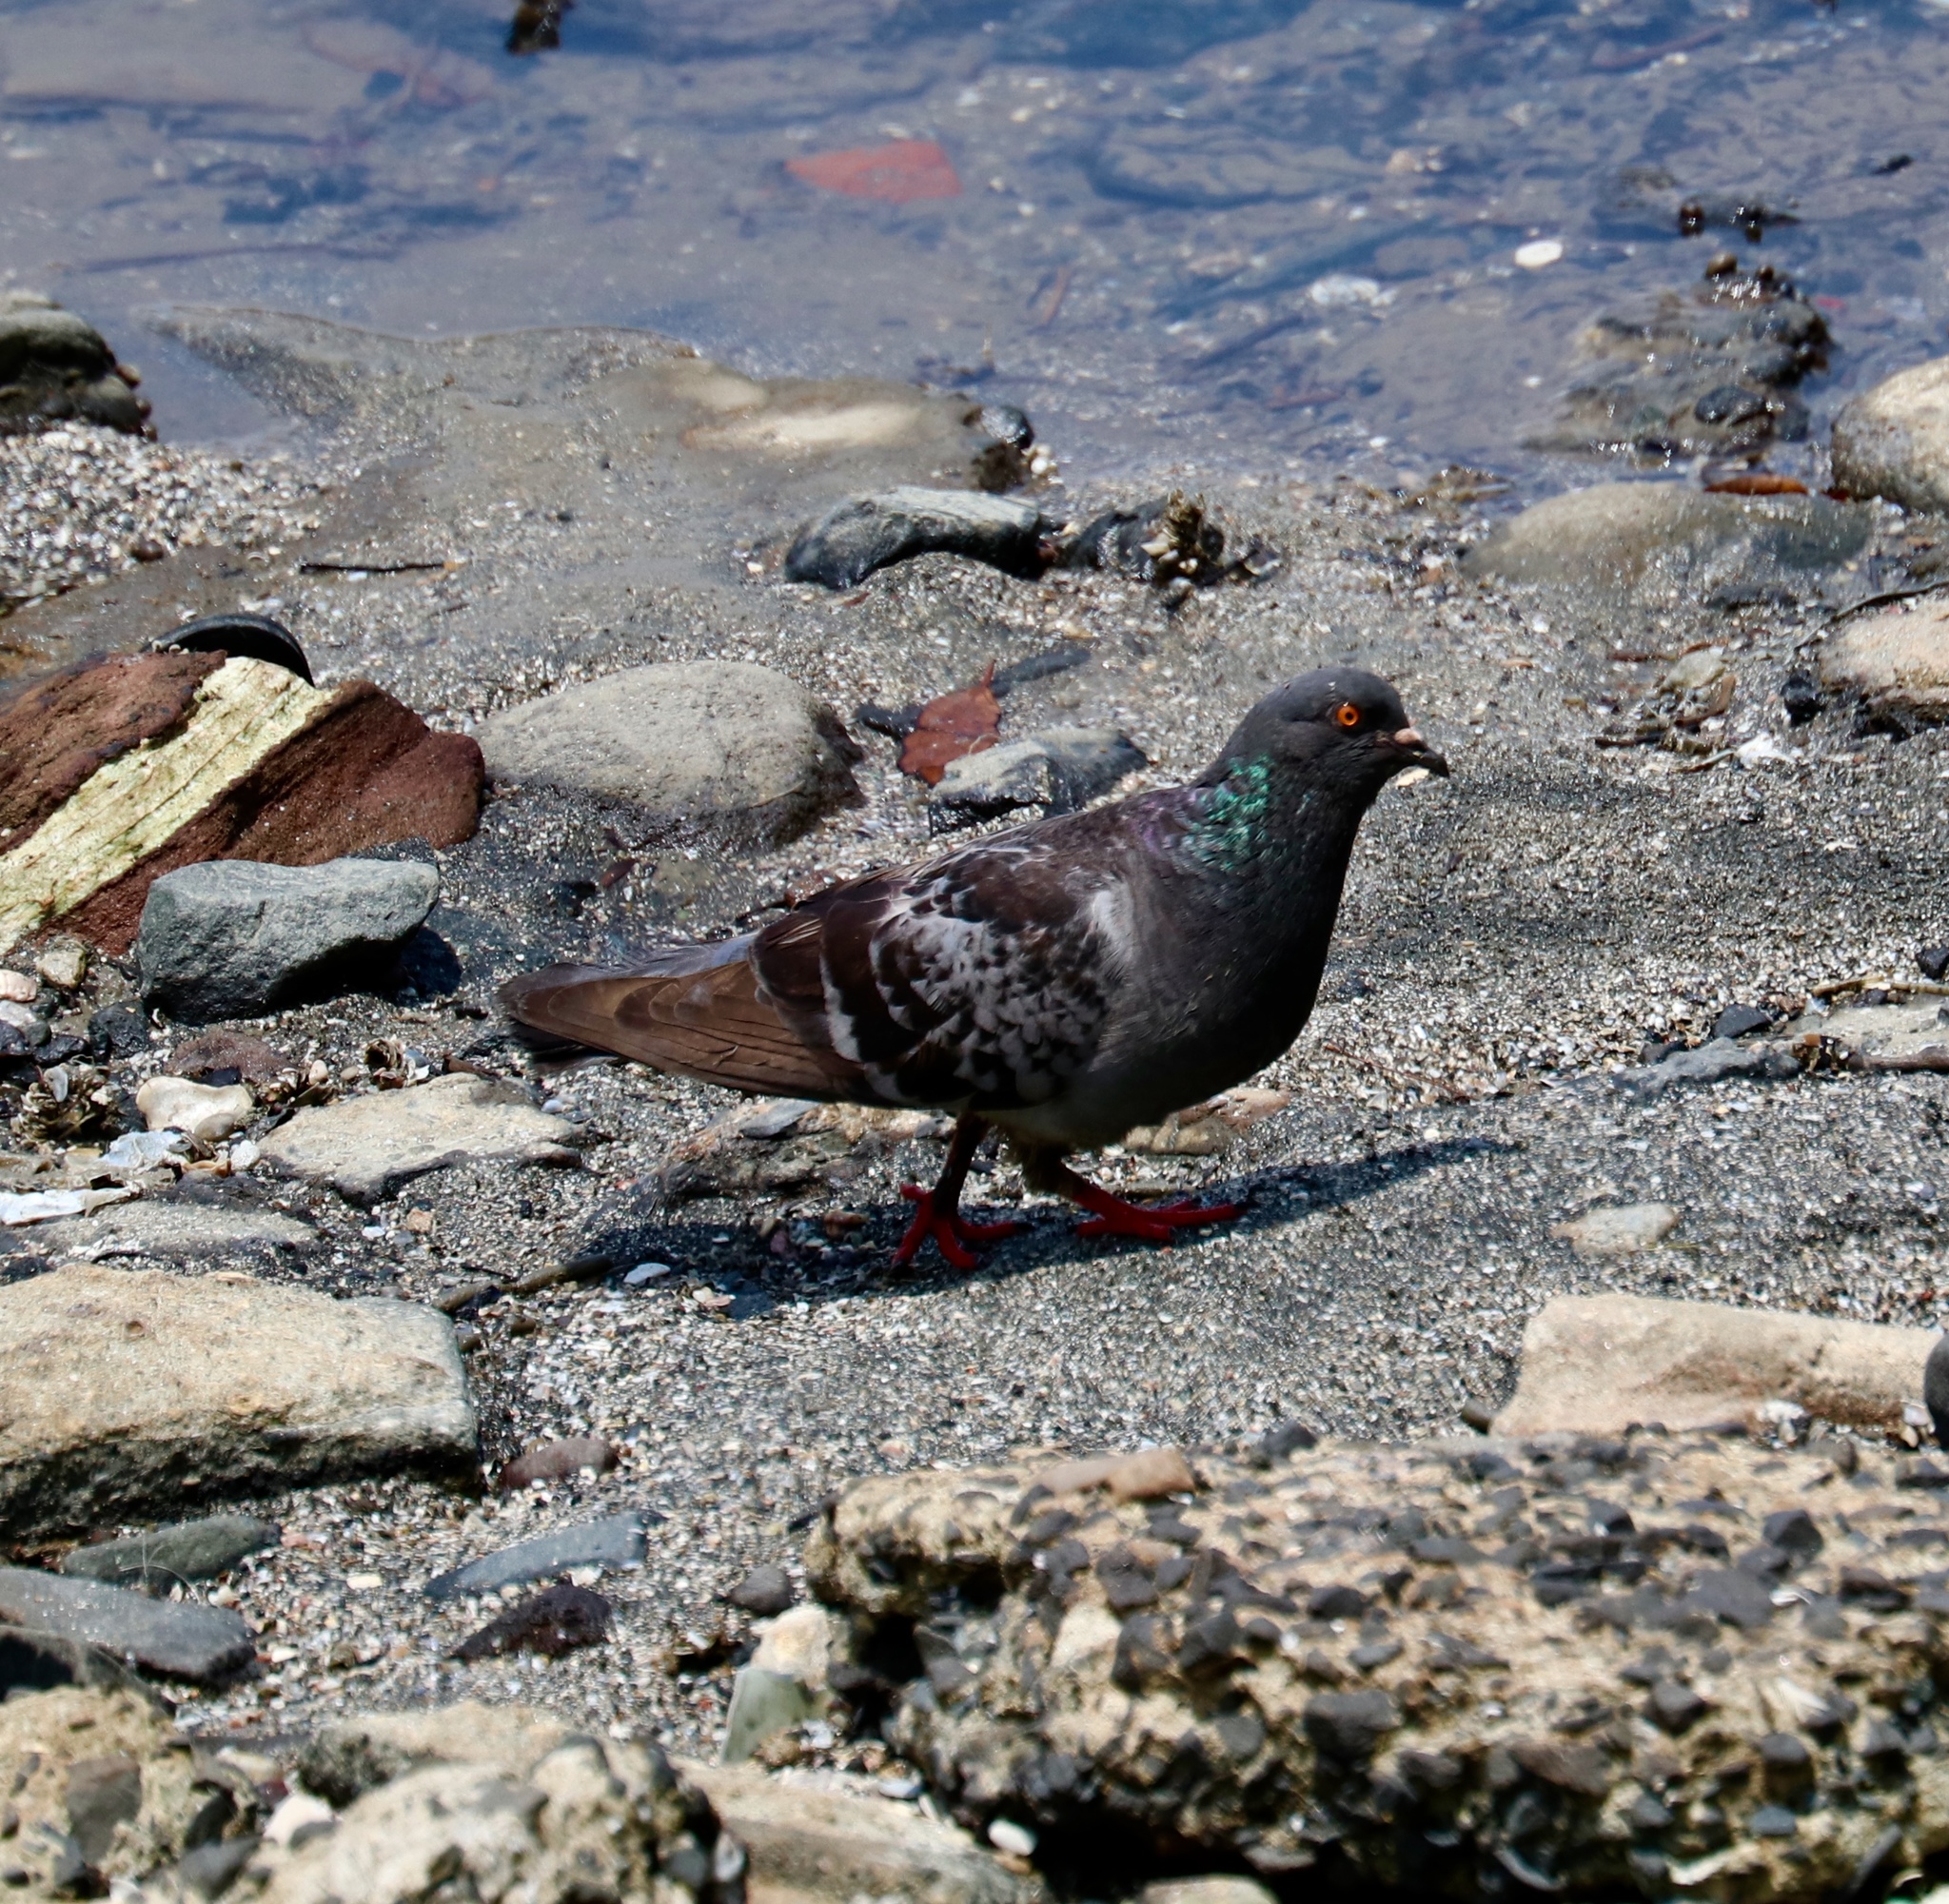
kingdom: Animalia
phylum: Chordata
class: Aves
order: Columbiformes
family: Columbidae
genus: Columba
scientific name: Columba livia
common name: Rock pigeon
